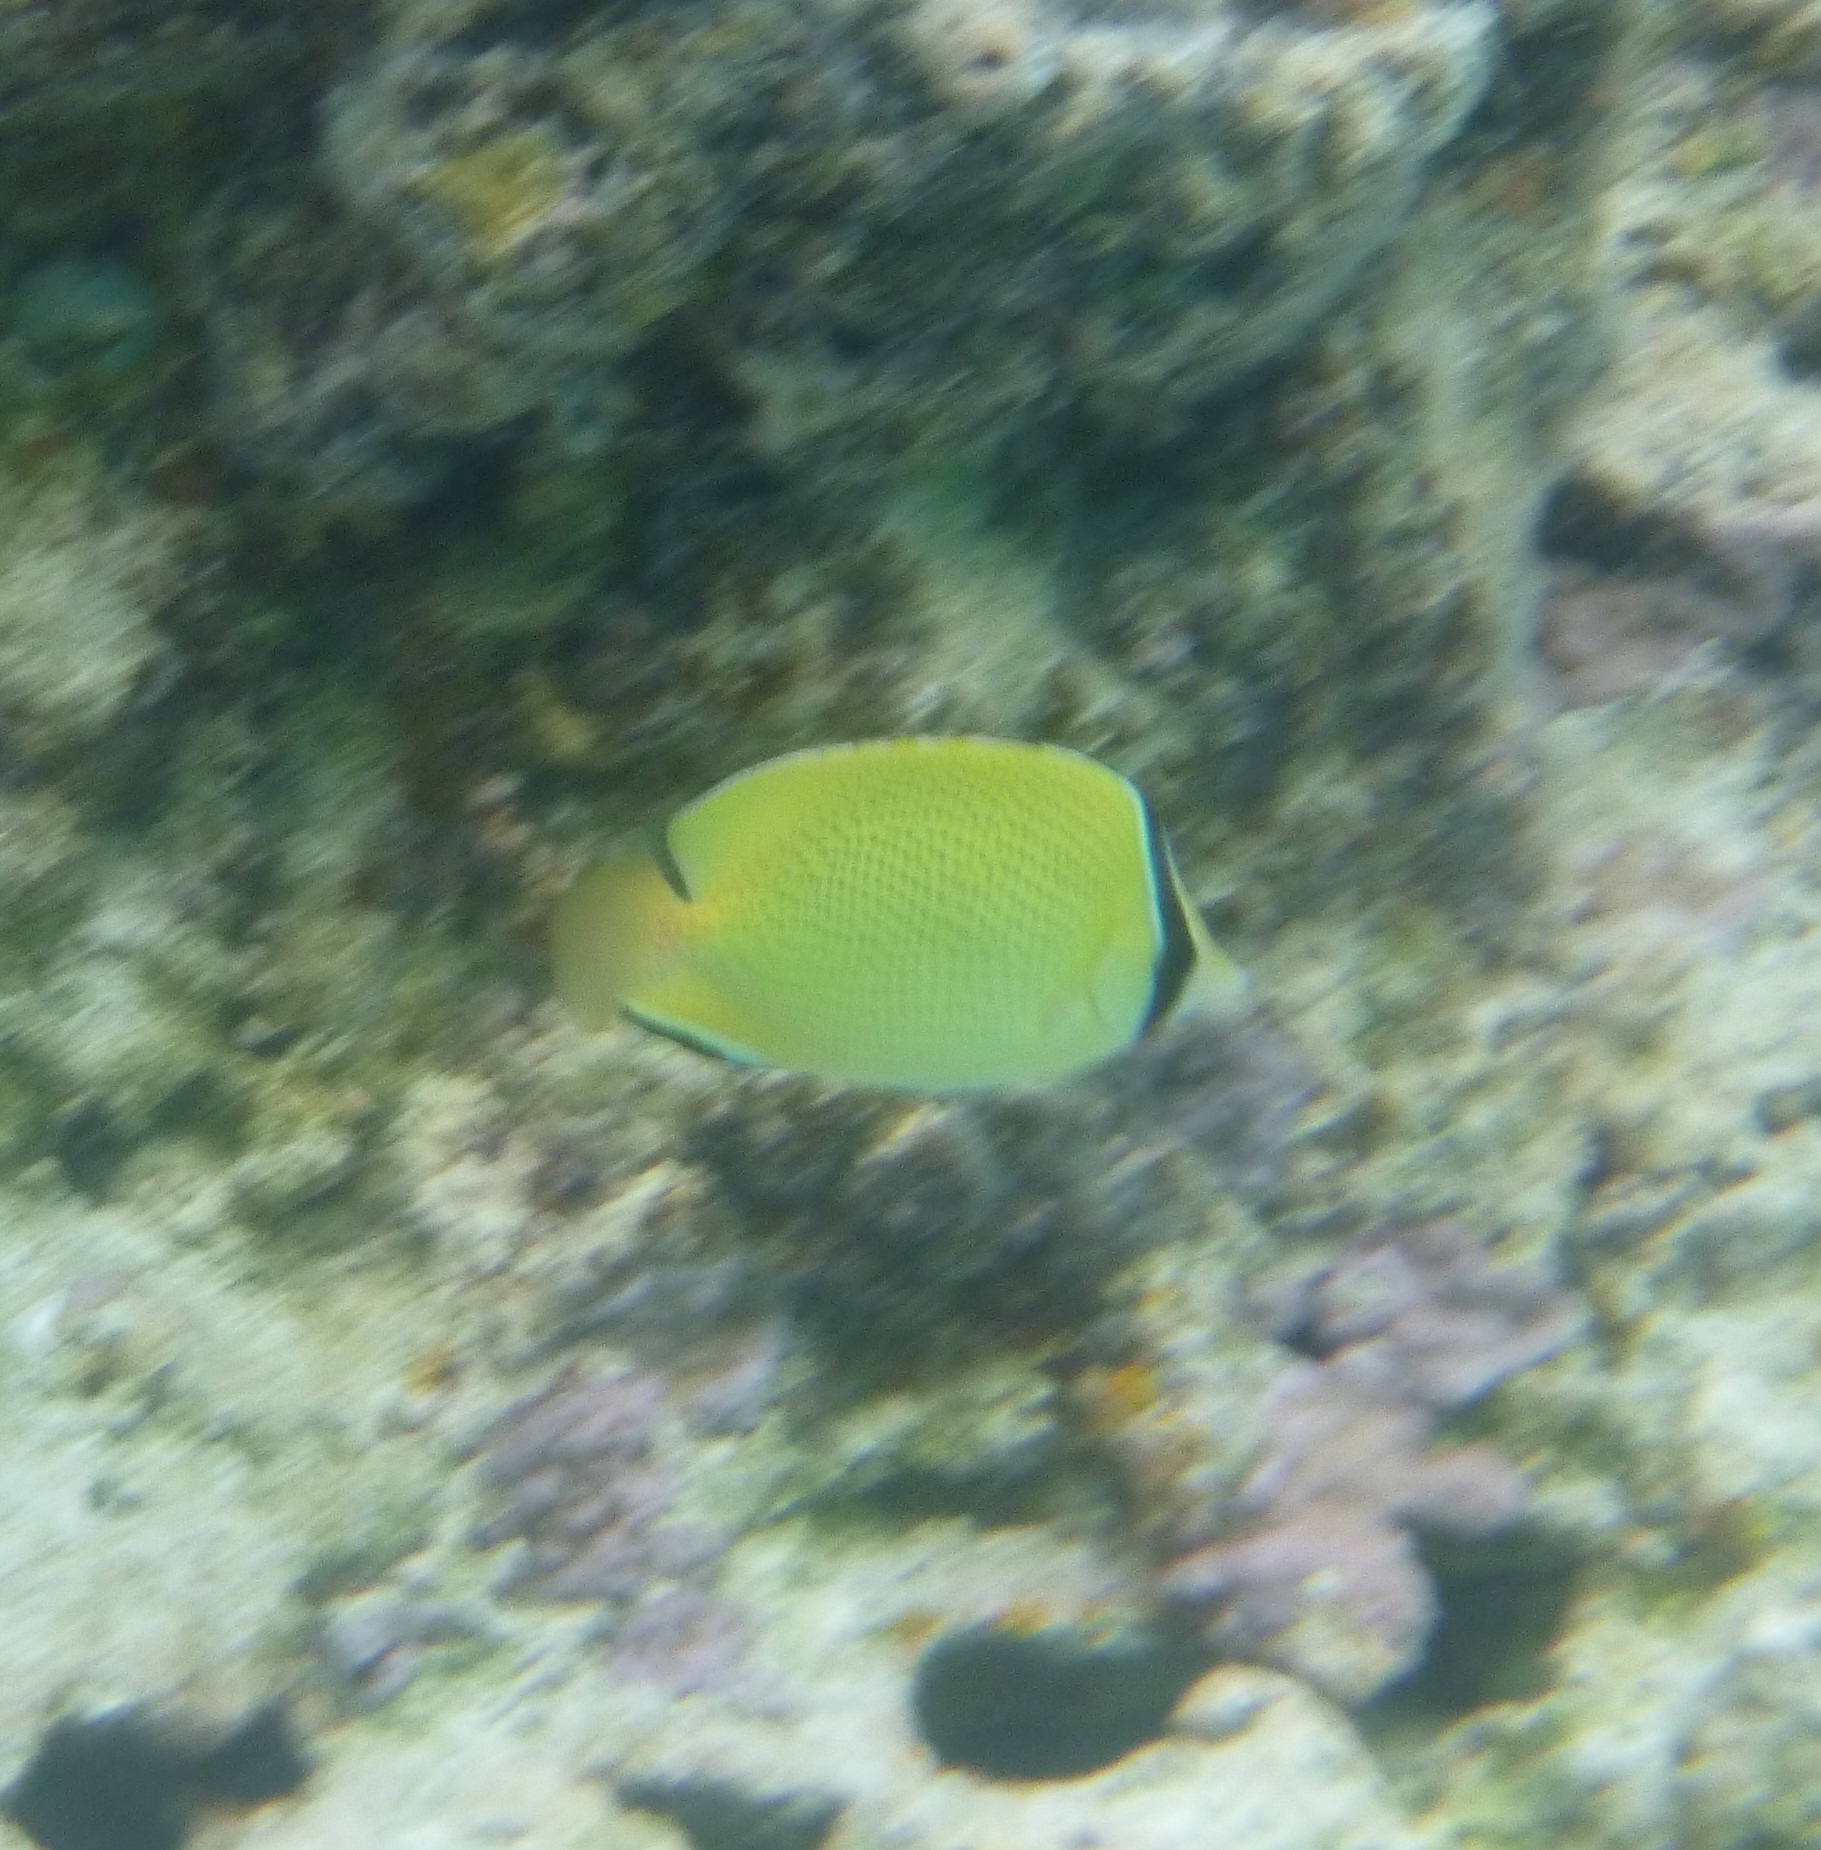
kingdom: Animalia
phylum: Chordata
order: Perciformes
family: Chaetodontidae
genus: Chaetodon
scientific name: Chaetodon citrinellus
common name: Speckled butterflyfish
